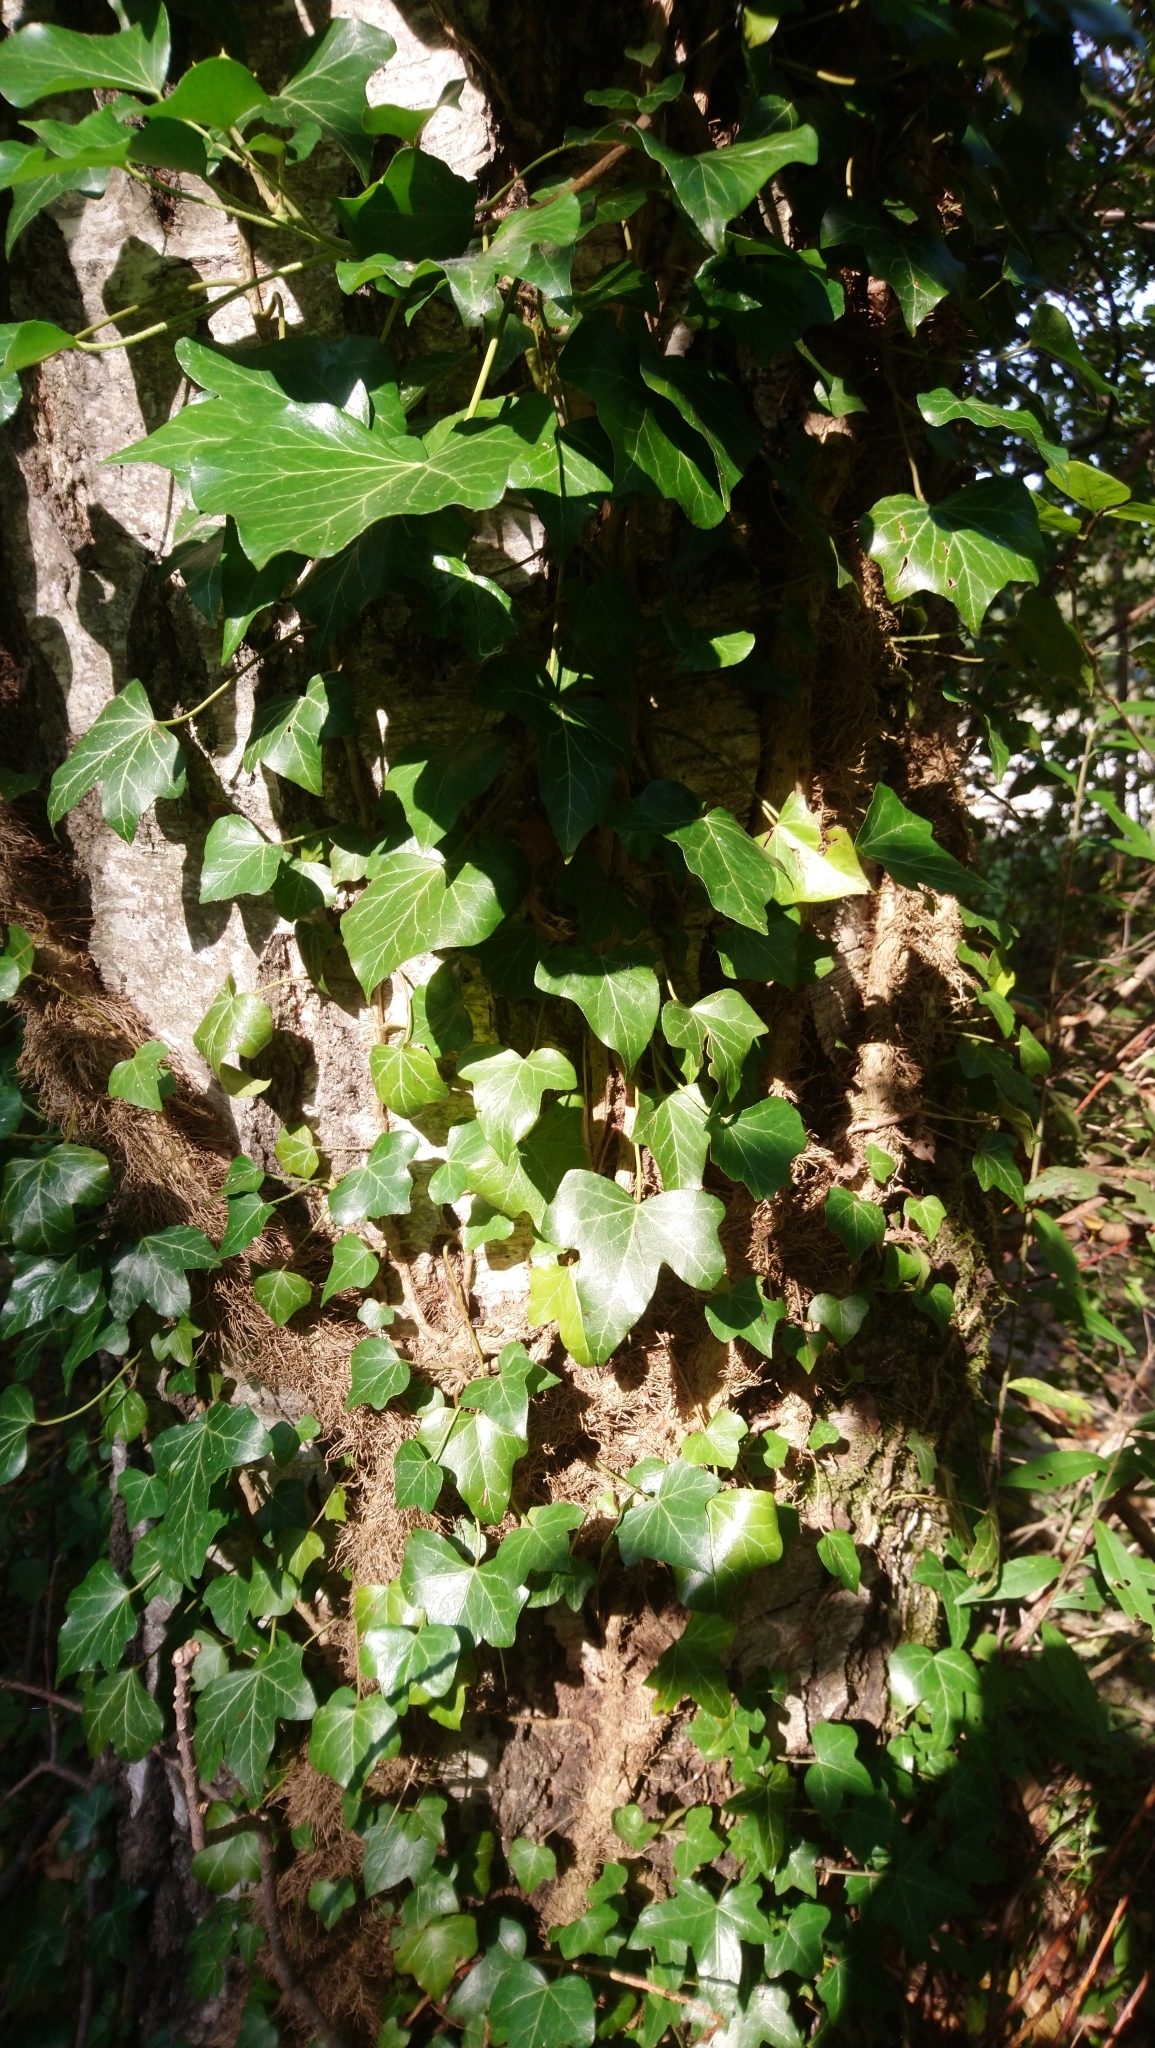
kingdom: Plantae
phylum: Tracheophyta
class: Magnoliopsida
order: Apiales
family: Araliaceae
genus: Hedera
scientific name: Hedera helix
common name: Ivy
